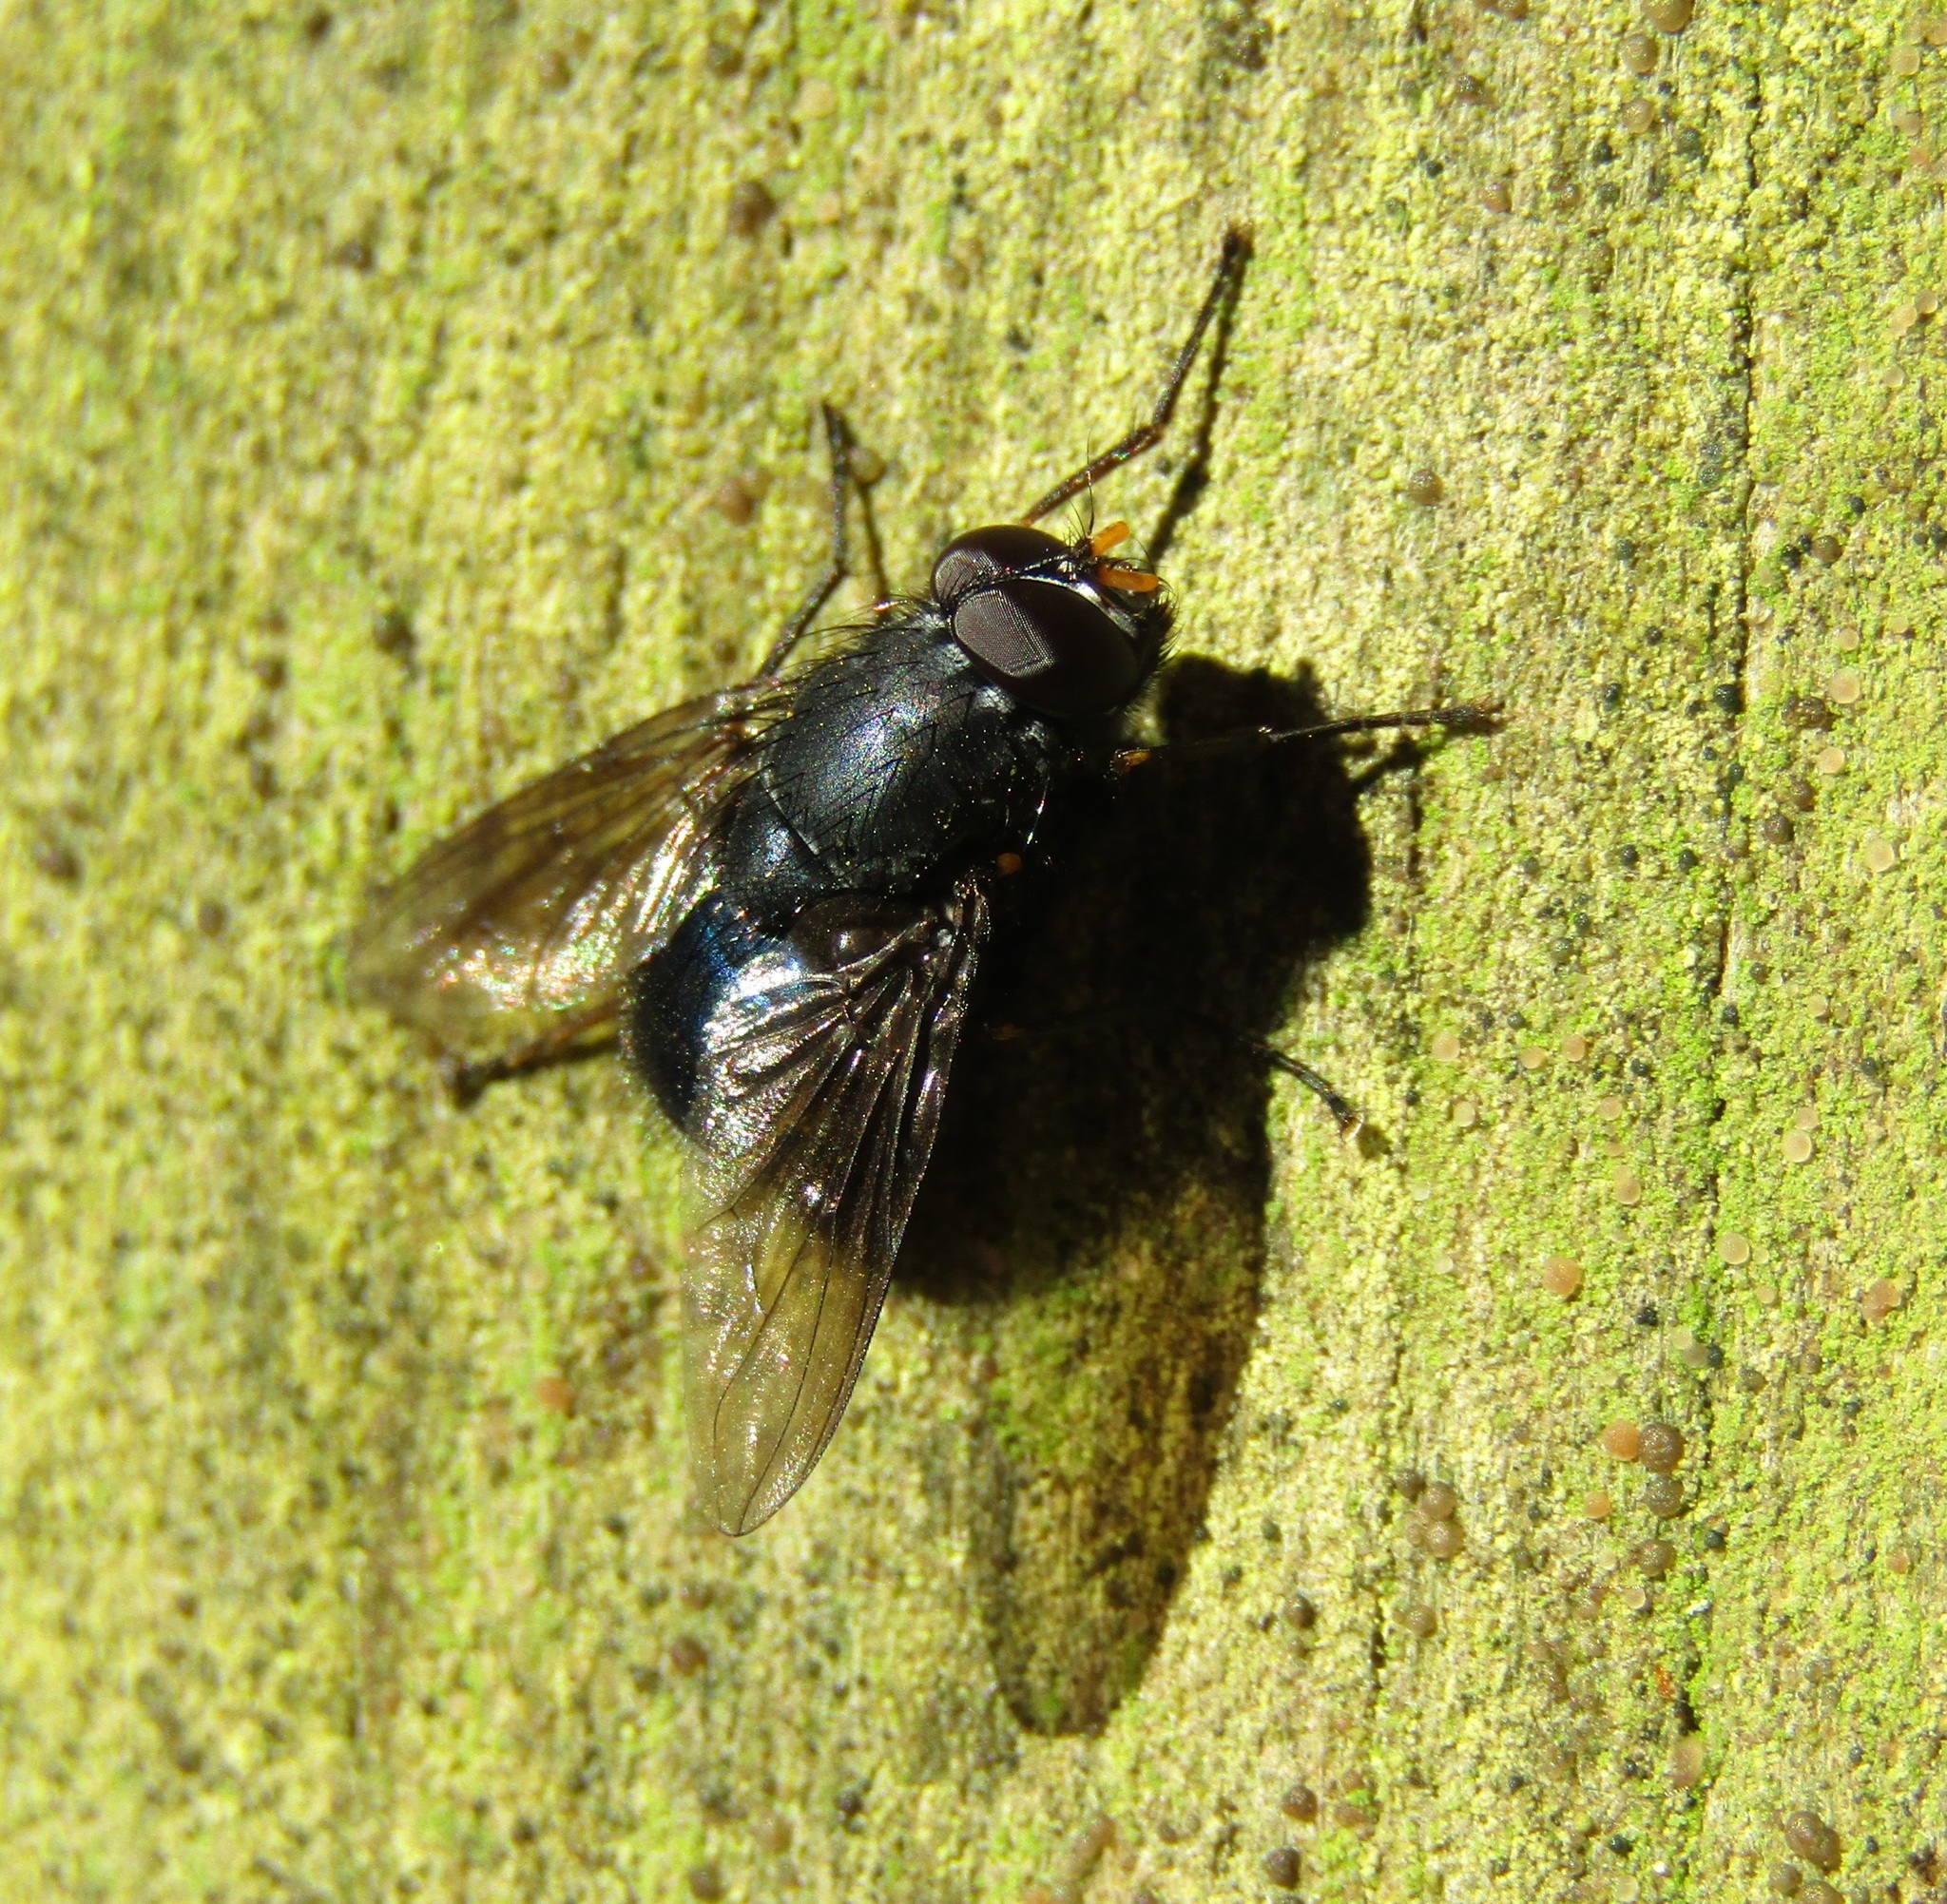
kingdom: Animalia
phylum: Arthropoda
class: Insecta
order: Diptera
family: Muscidae
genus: Calliphoroides
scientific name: Calliphoroides antennatis
